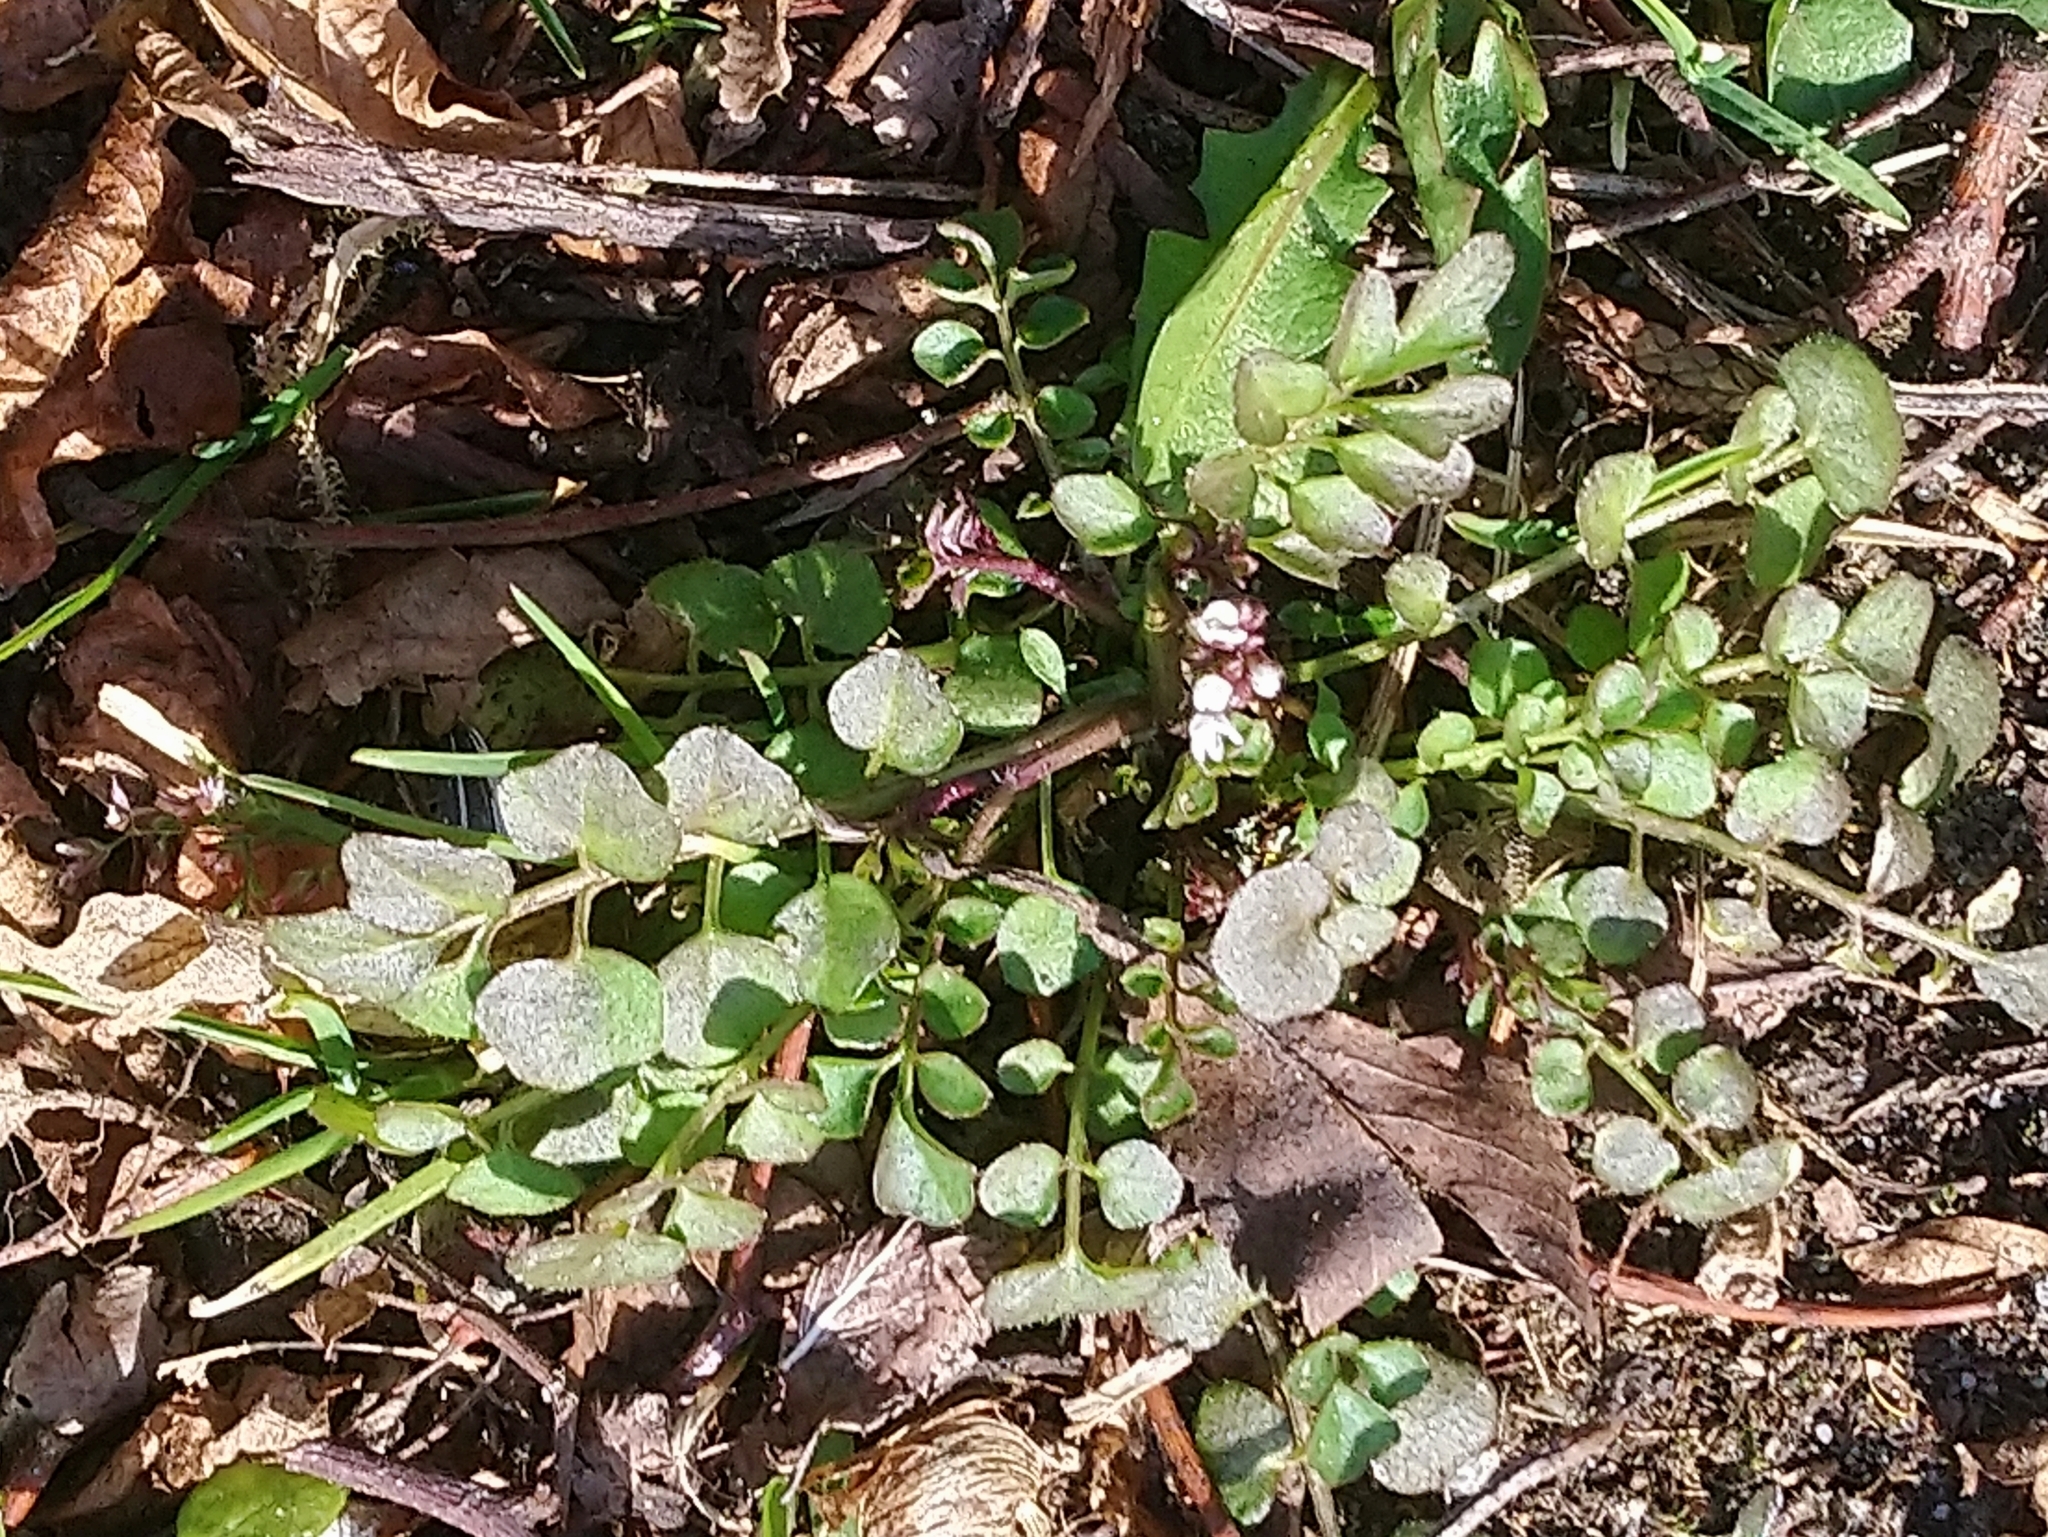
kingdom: Plantae
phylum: Tracheophyta
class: Magnoliopsida
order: Brassicales
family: Brassicaceae
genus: Cardamine
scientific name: Cardamine hirsuta
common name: Hairy bittercress
